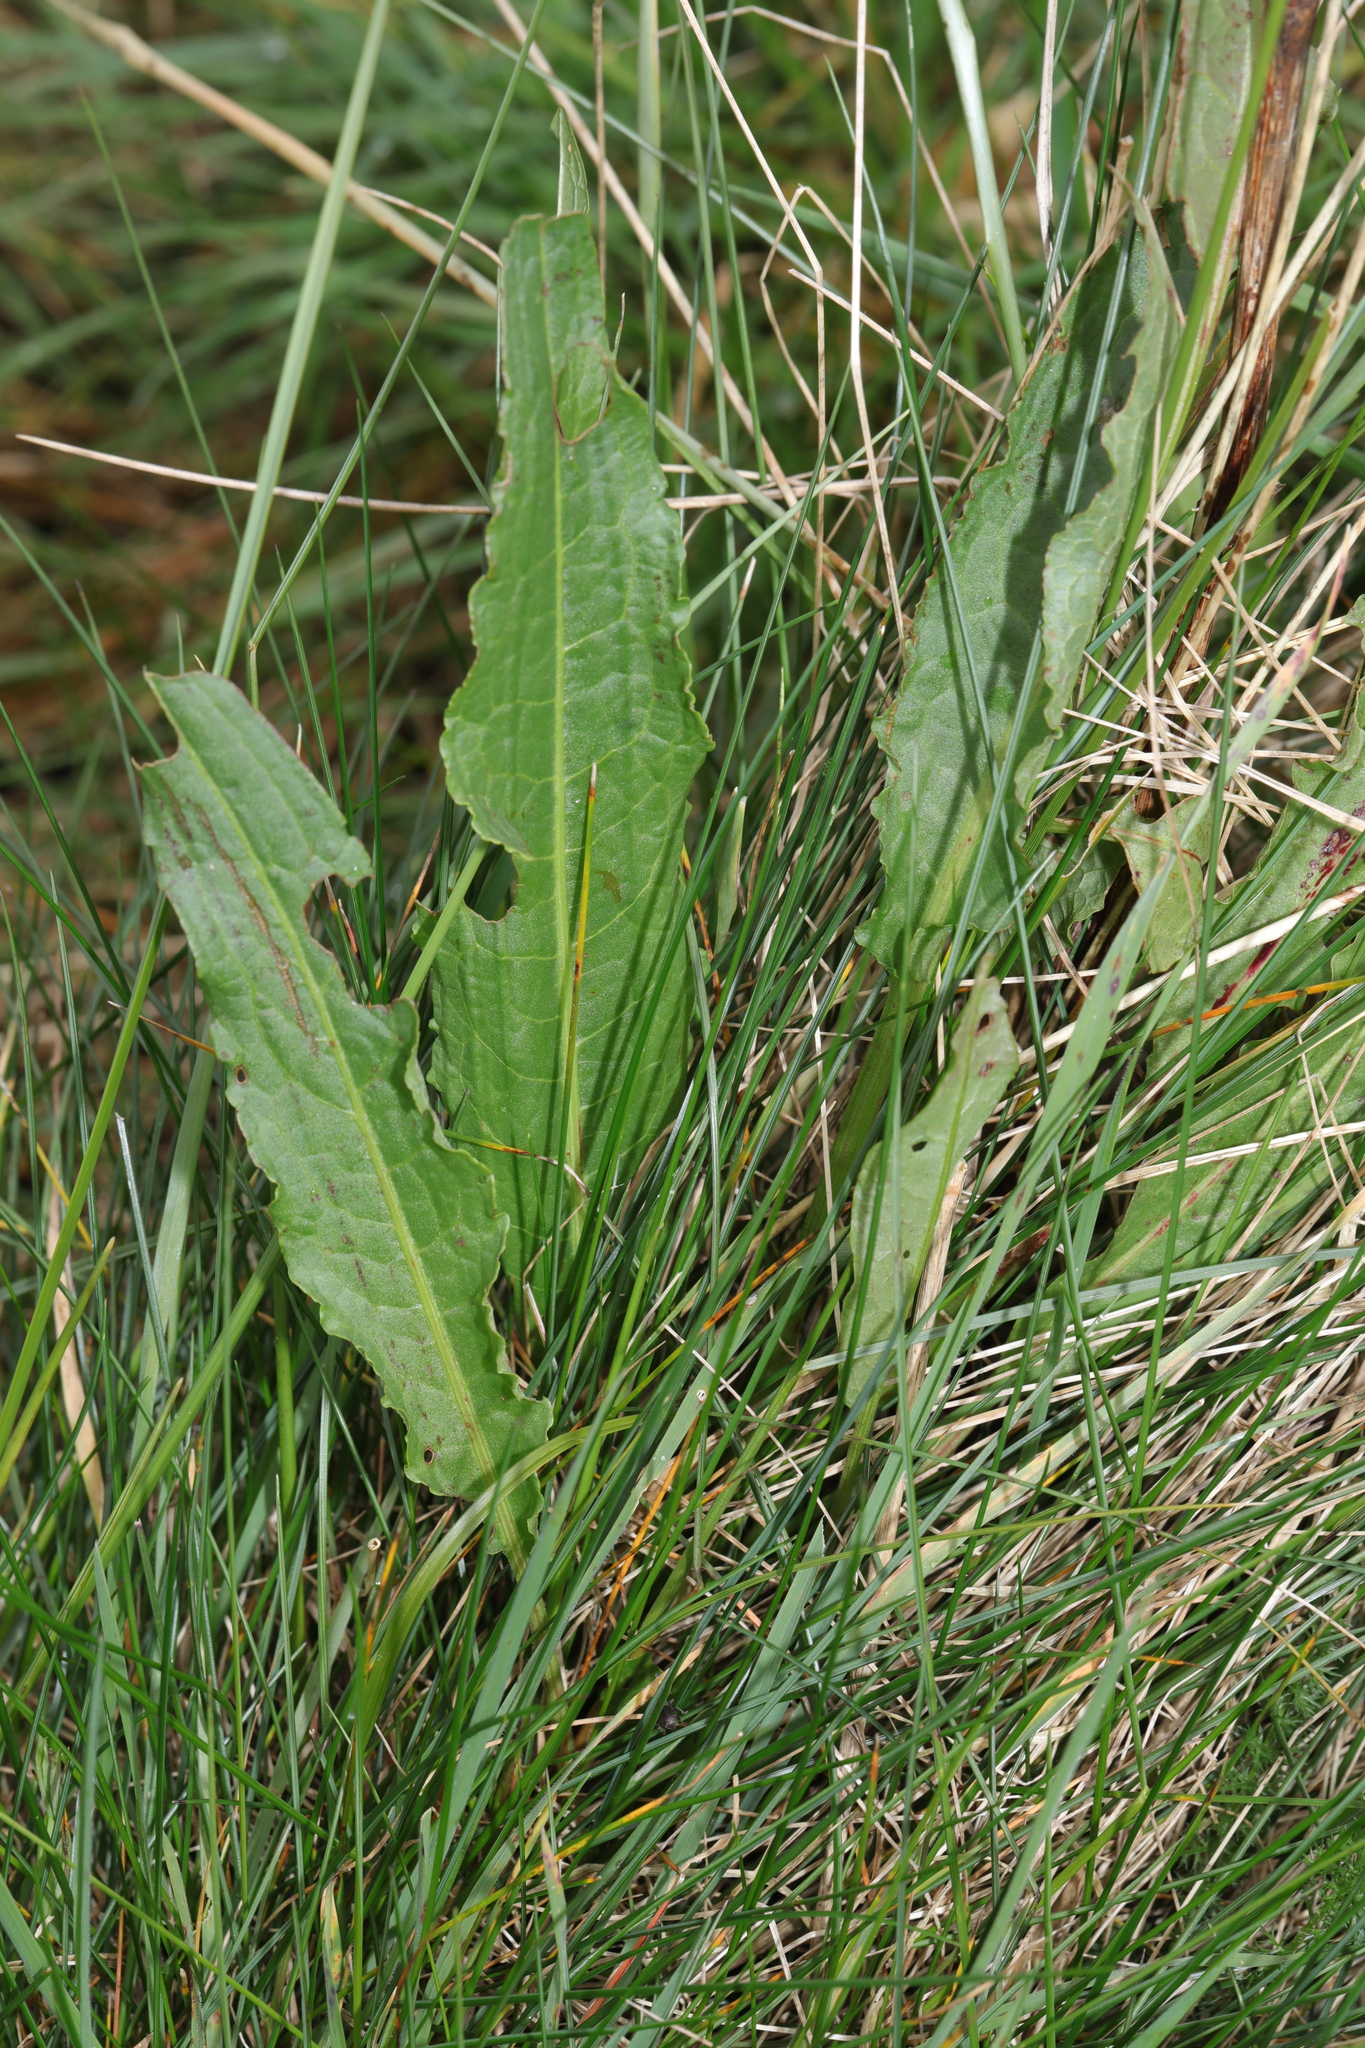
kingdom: Plantae
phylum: Tracheophyta
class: Magnoliopsida
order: Caryophyllales
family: Polygonaceae
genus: Rumex
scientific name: Rumex crispus
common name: Curled dock
